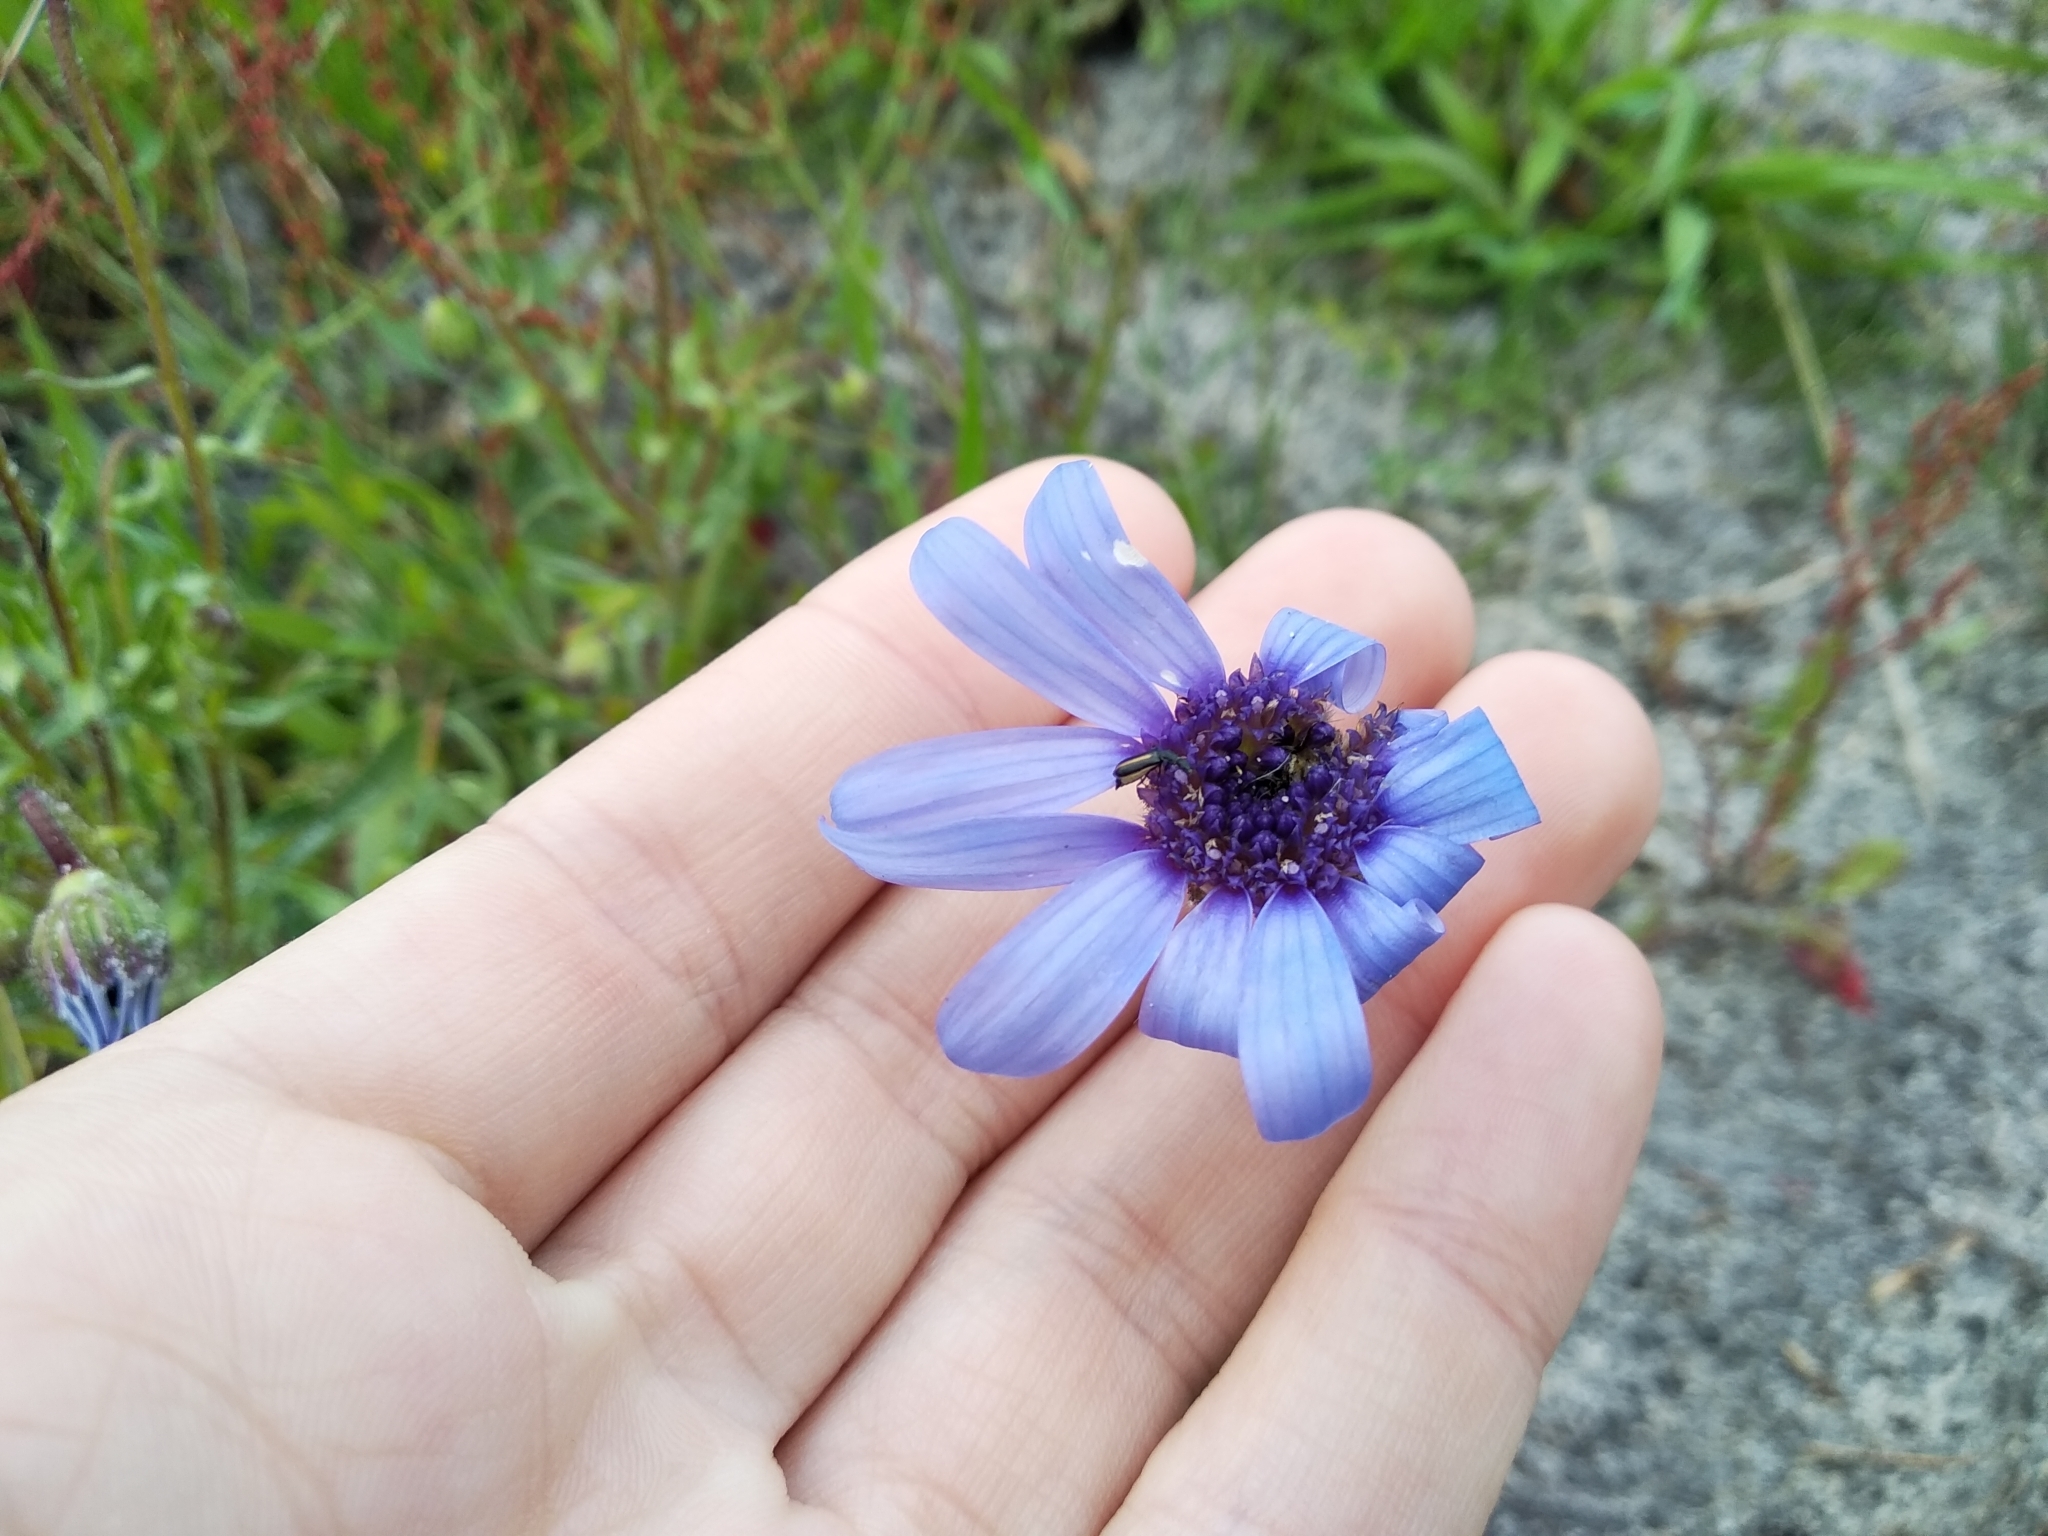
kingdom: Plantae
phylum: Tracheophyta
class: Magnoliopsida
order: Asterales
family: Asteraceae
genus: Felicia
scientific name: Felicia heterophylla
